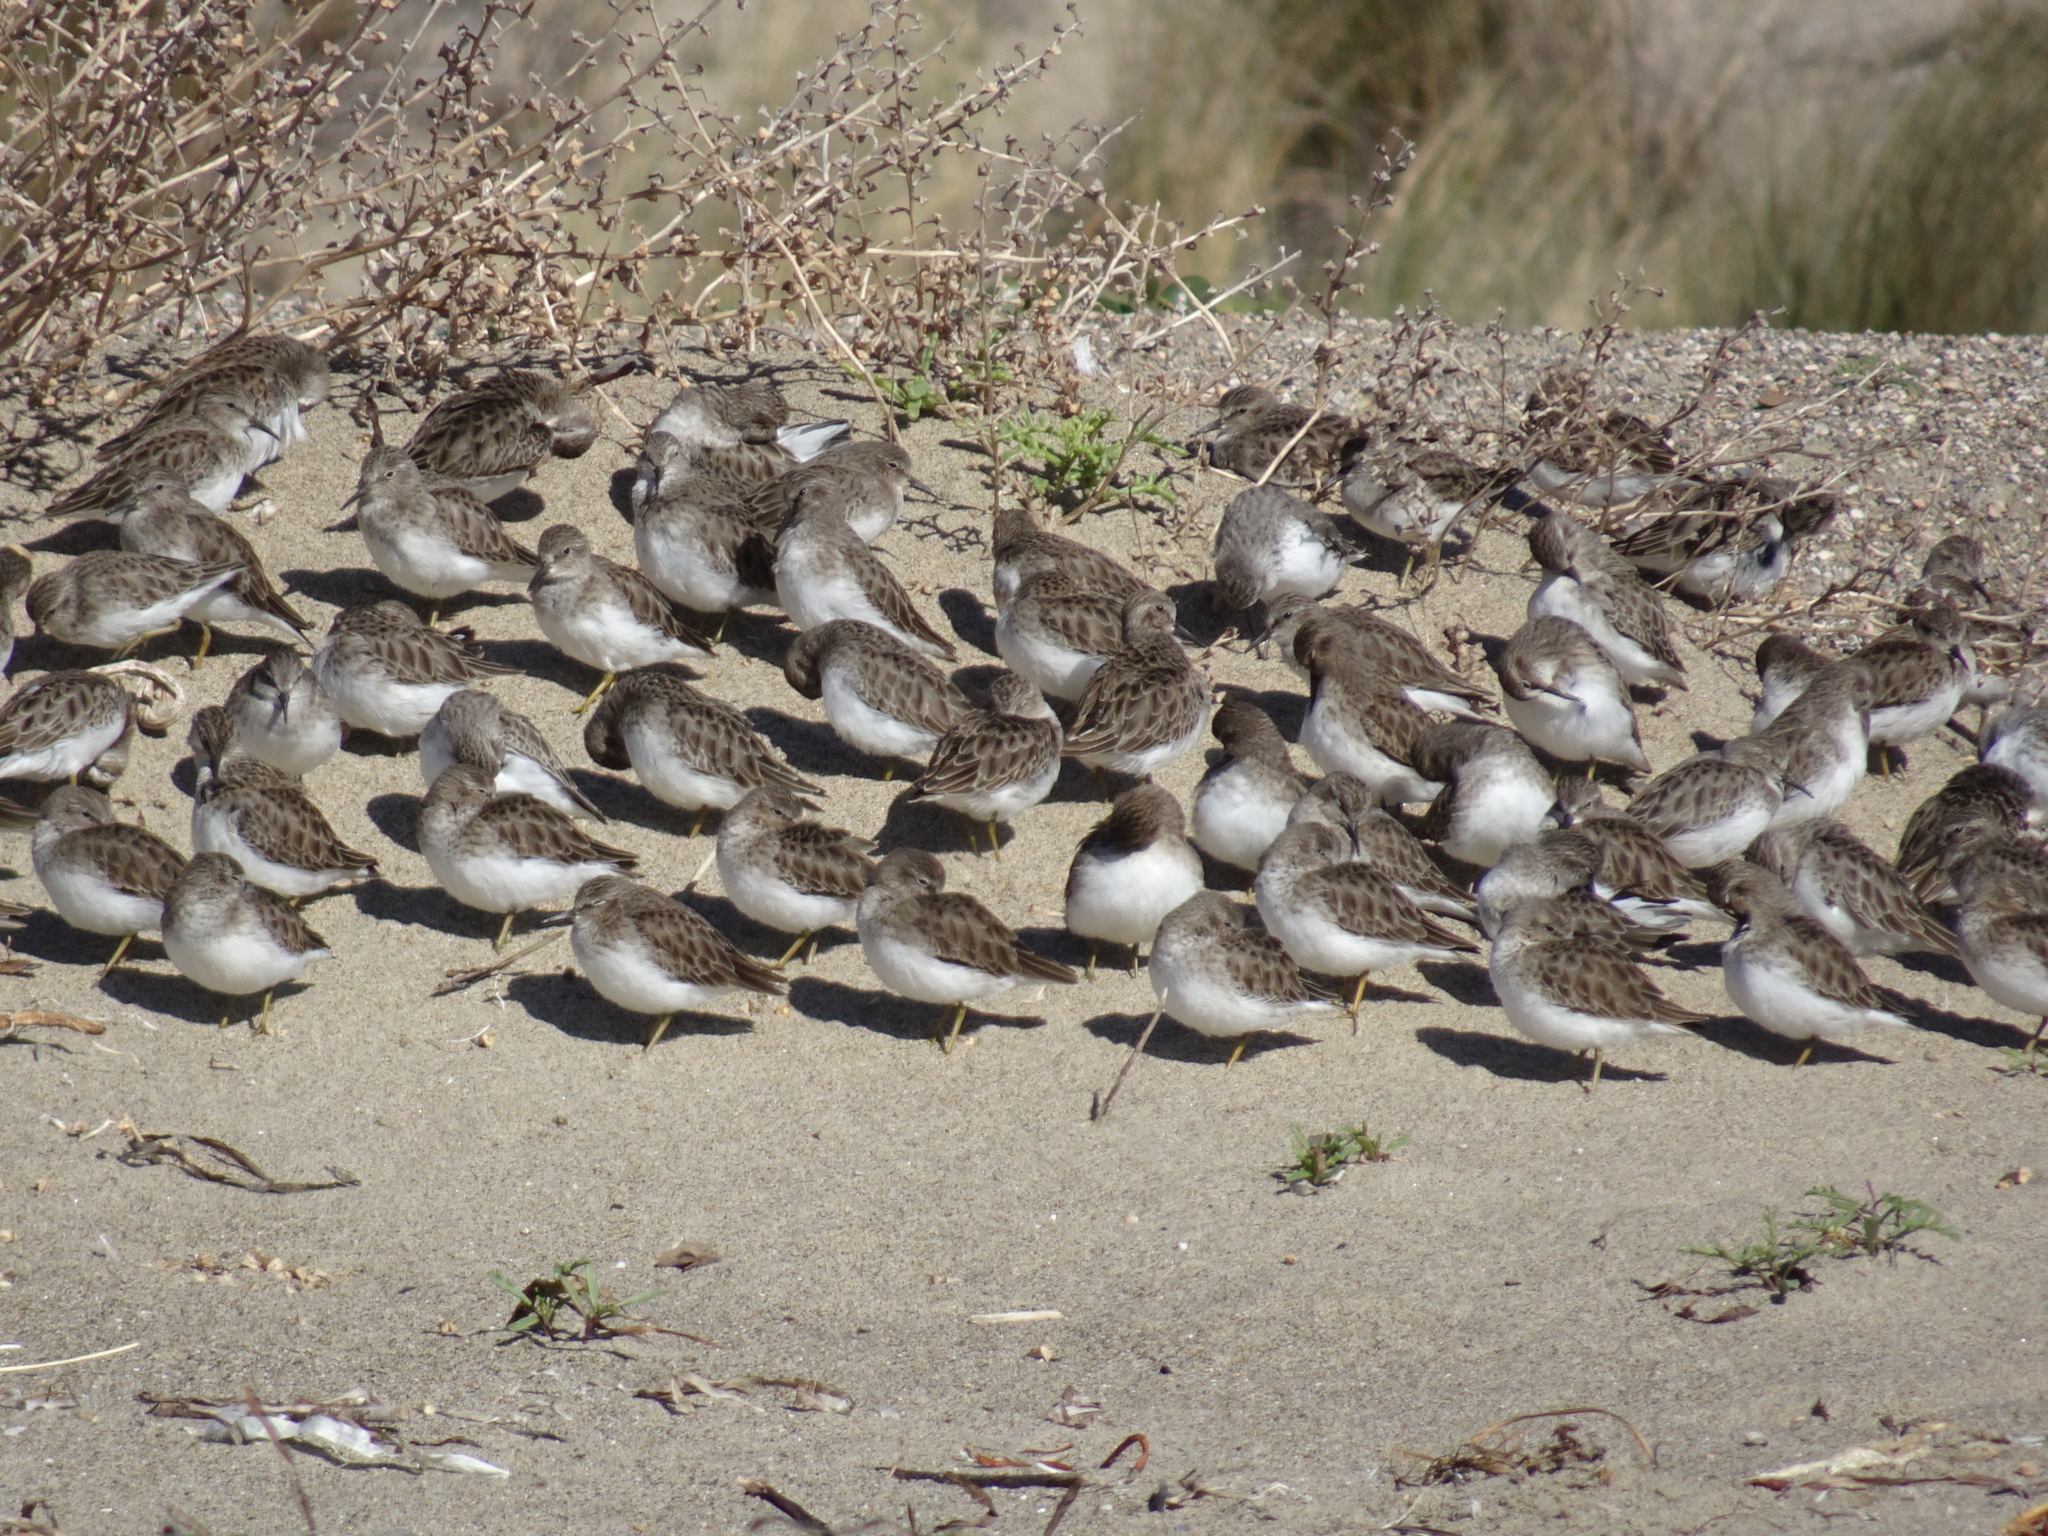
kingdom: Animalia
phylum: Chordata
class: Aves
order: Charadriiformes
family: Scolopacidae
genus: Calidris
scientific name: Calidris minutilla
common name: Least sandpiper
